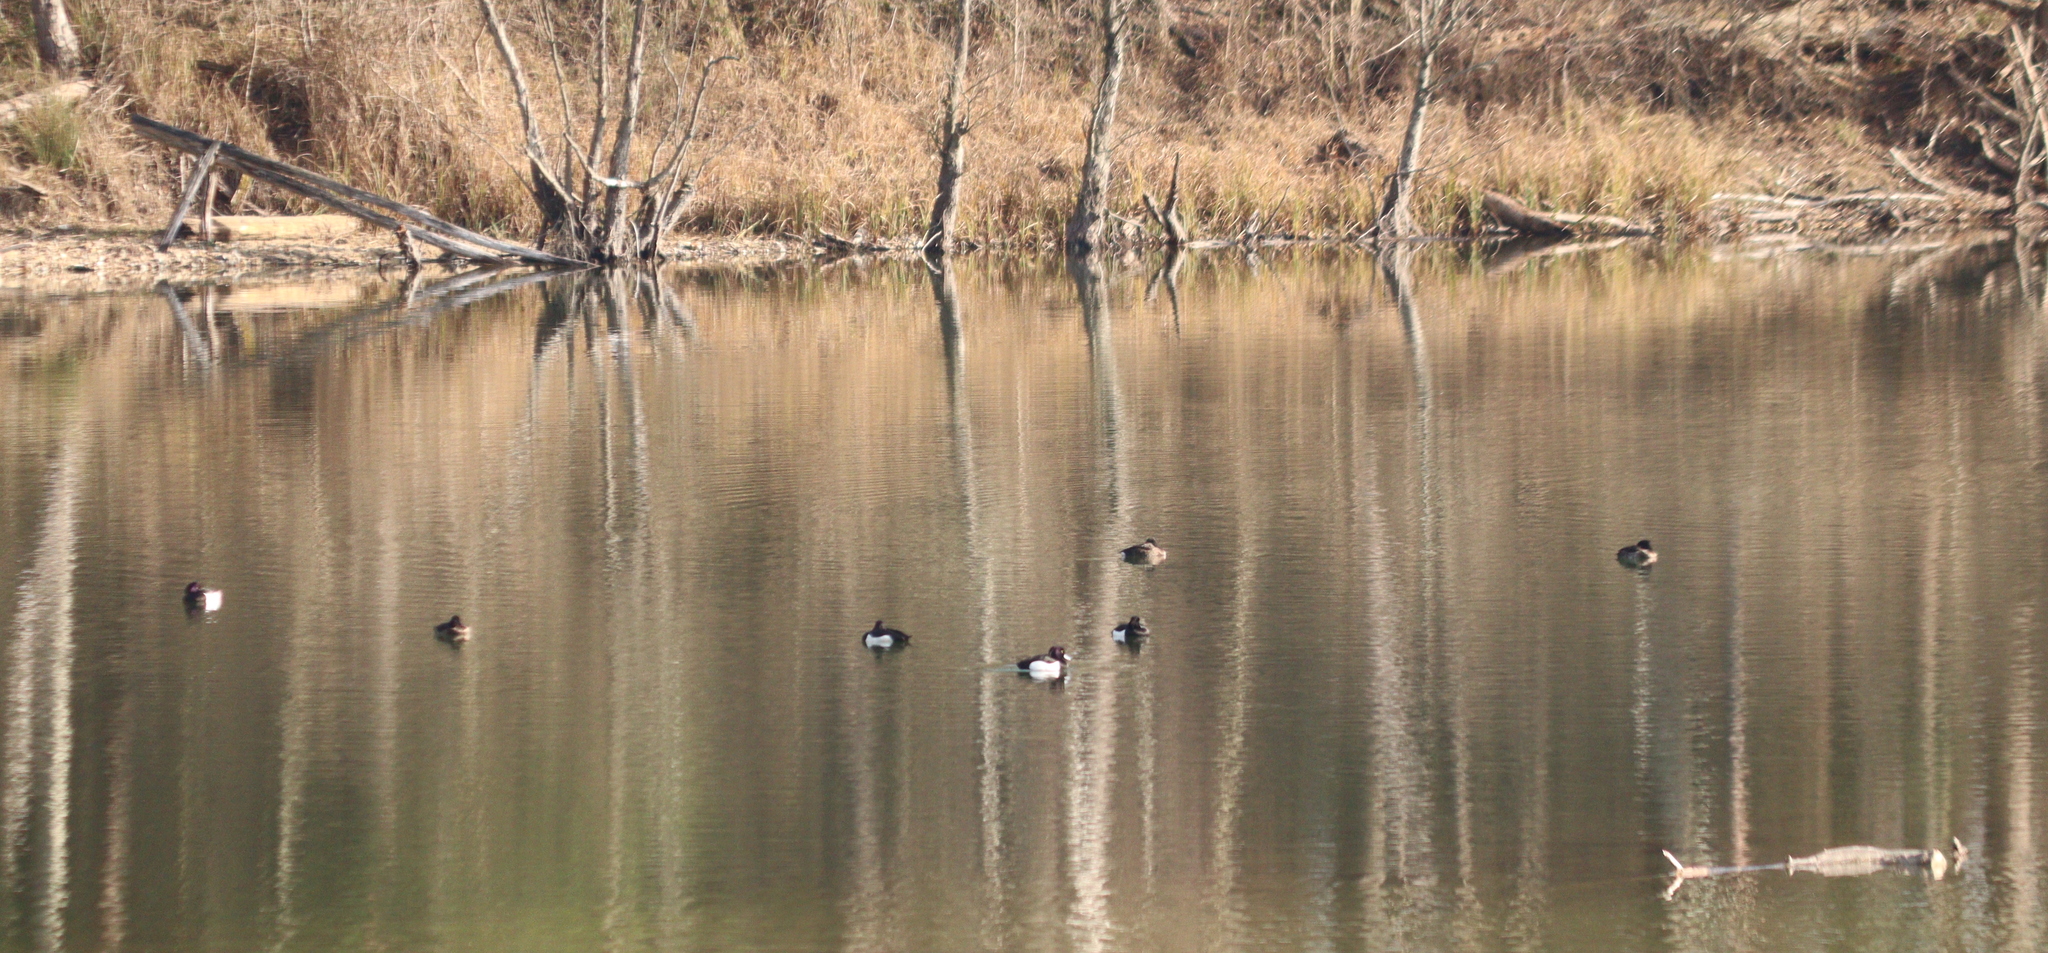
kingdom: Animalia
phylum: Chordata
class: Aves
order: Anseriformes
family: Anatidae
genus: Aythya
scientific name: Aythya fuligula
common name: Tufted duck
